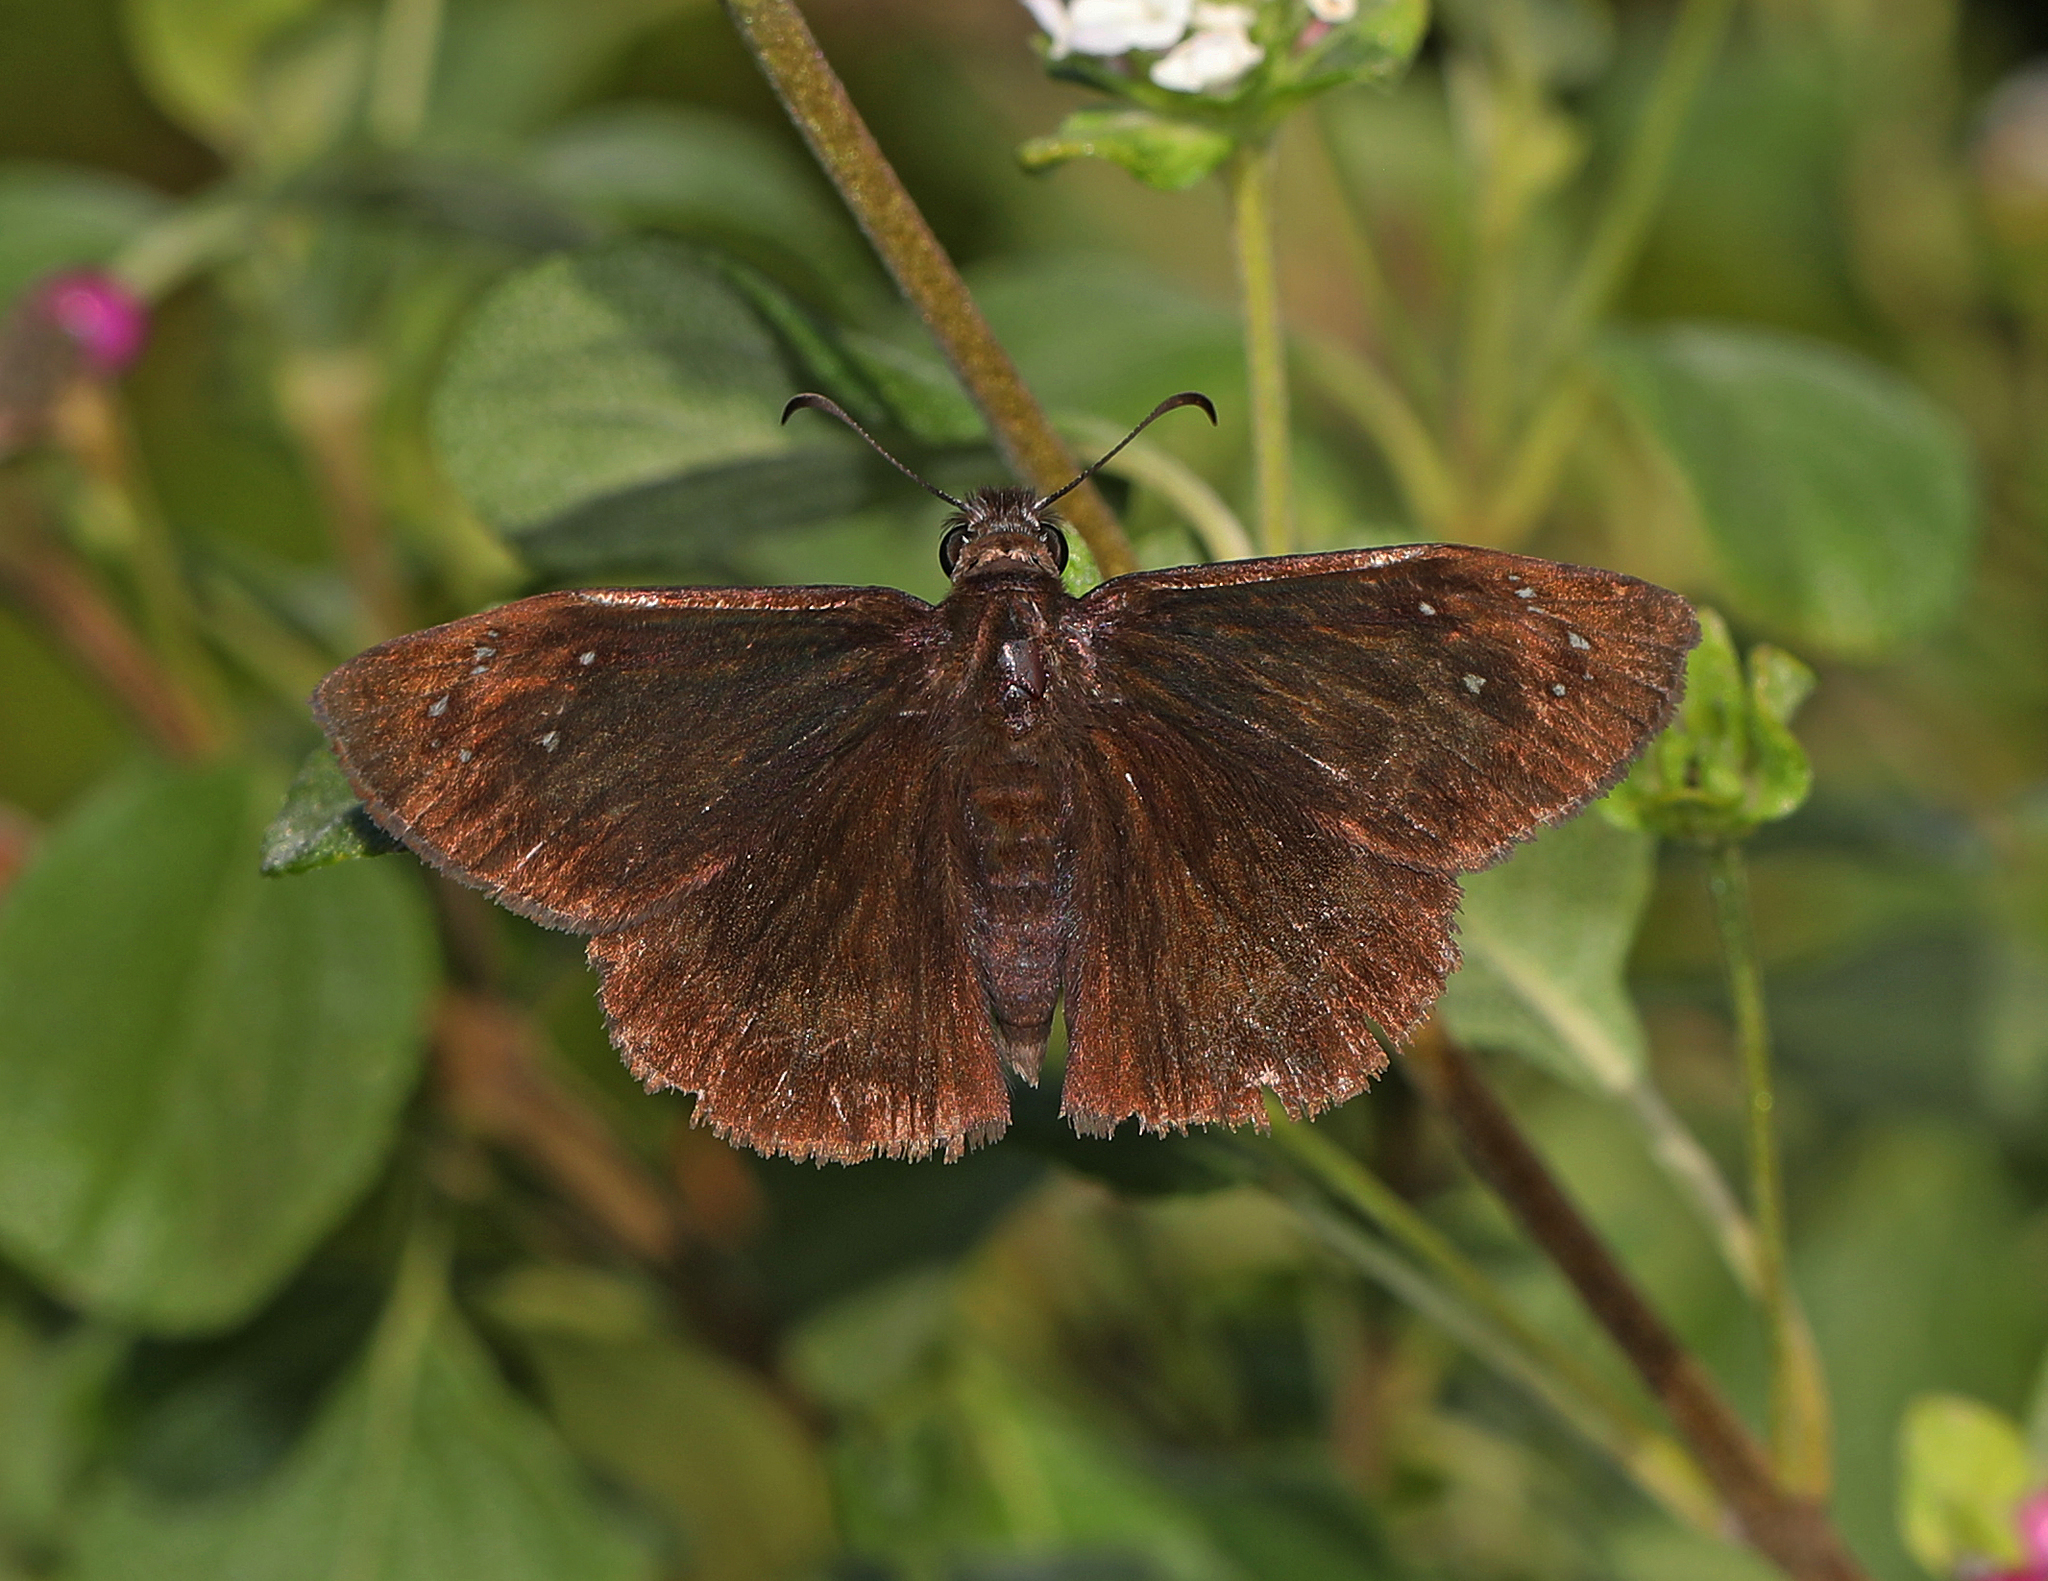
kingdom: Animalia
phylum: Arthropoda
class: Insecta
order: Lepidoptera
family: Hesperiidae
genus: Ephyriades
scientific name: Ephyriades brunnea
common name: Florida duskywing
